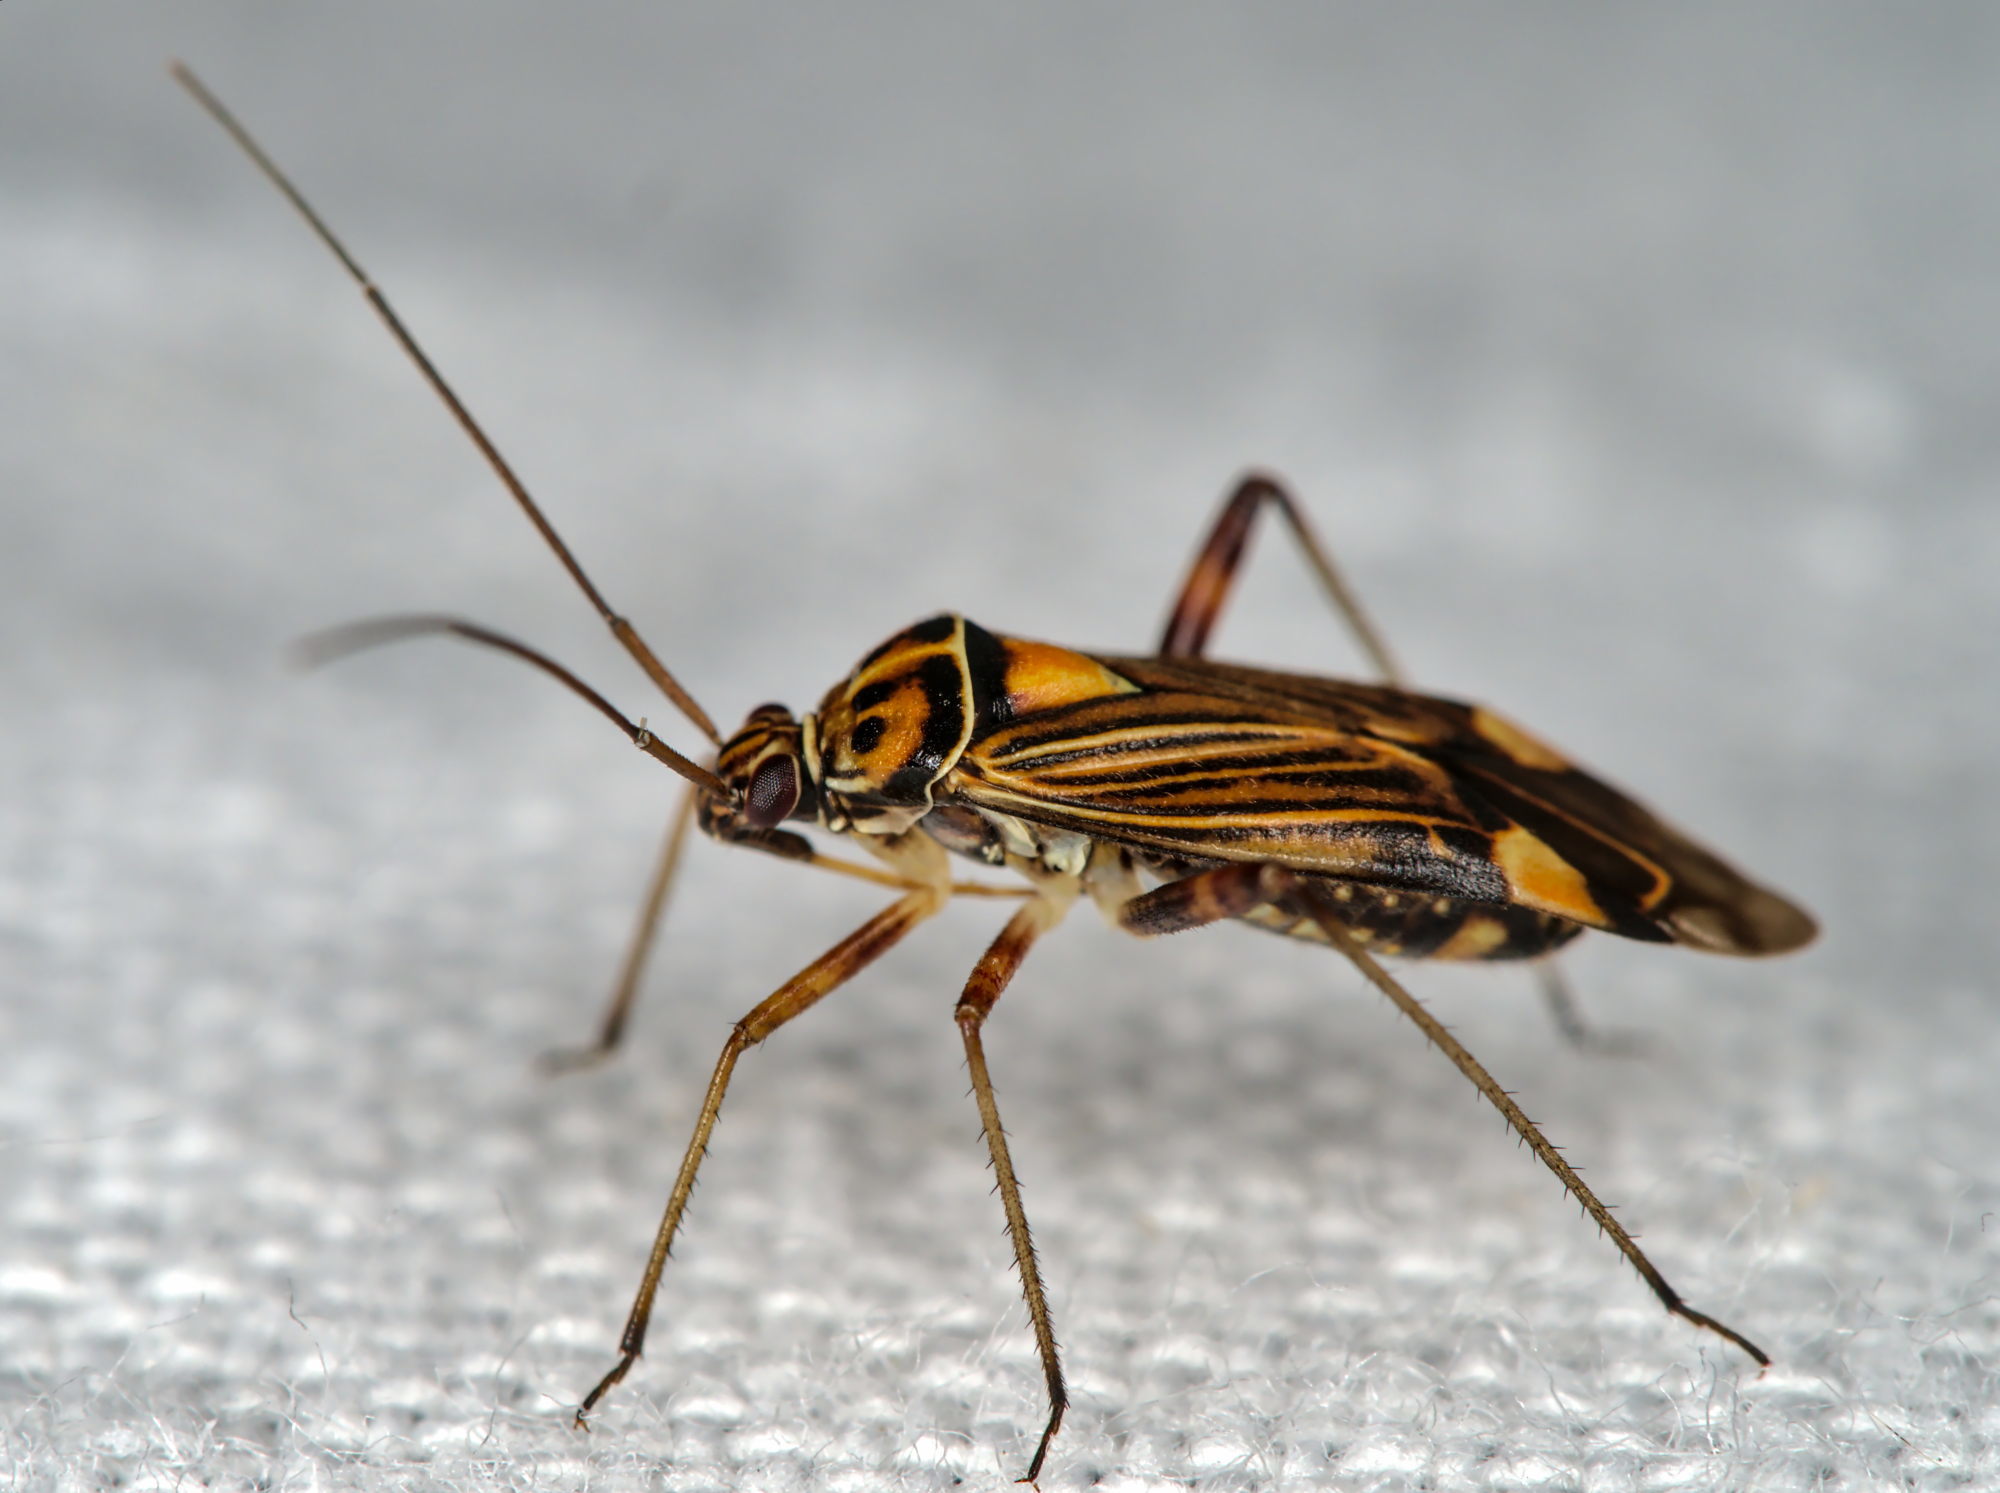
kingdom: Animalia
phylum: Arthropoda
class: Insecta
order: Hemiptera
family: Miridae
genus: Rhabdomiris
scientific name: Rhabdomiris striatellus
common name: Plant bug
